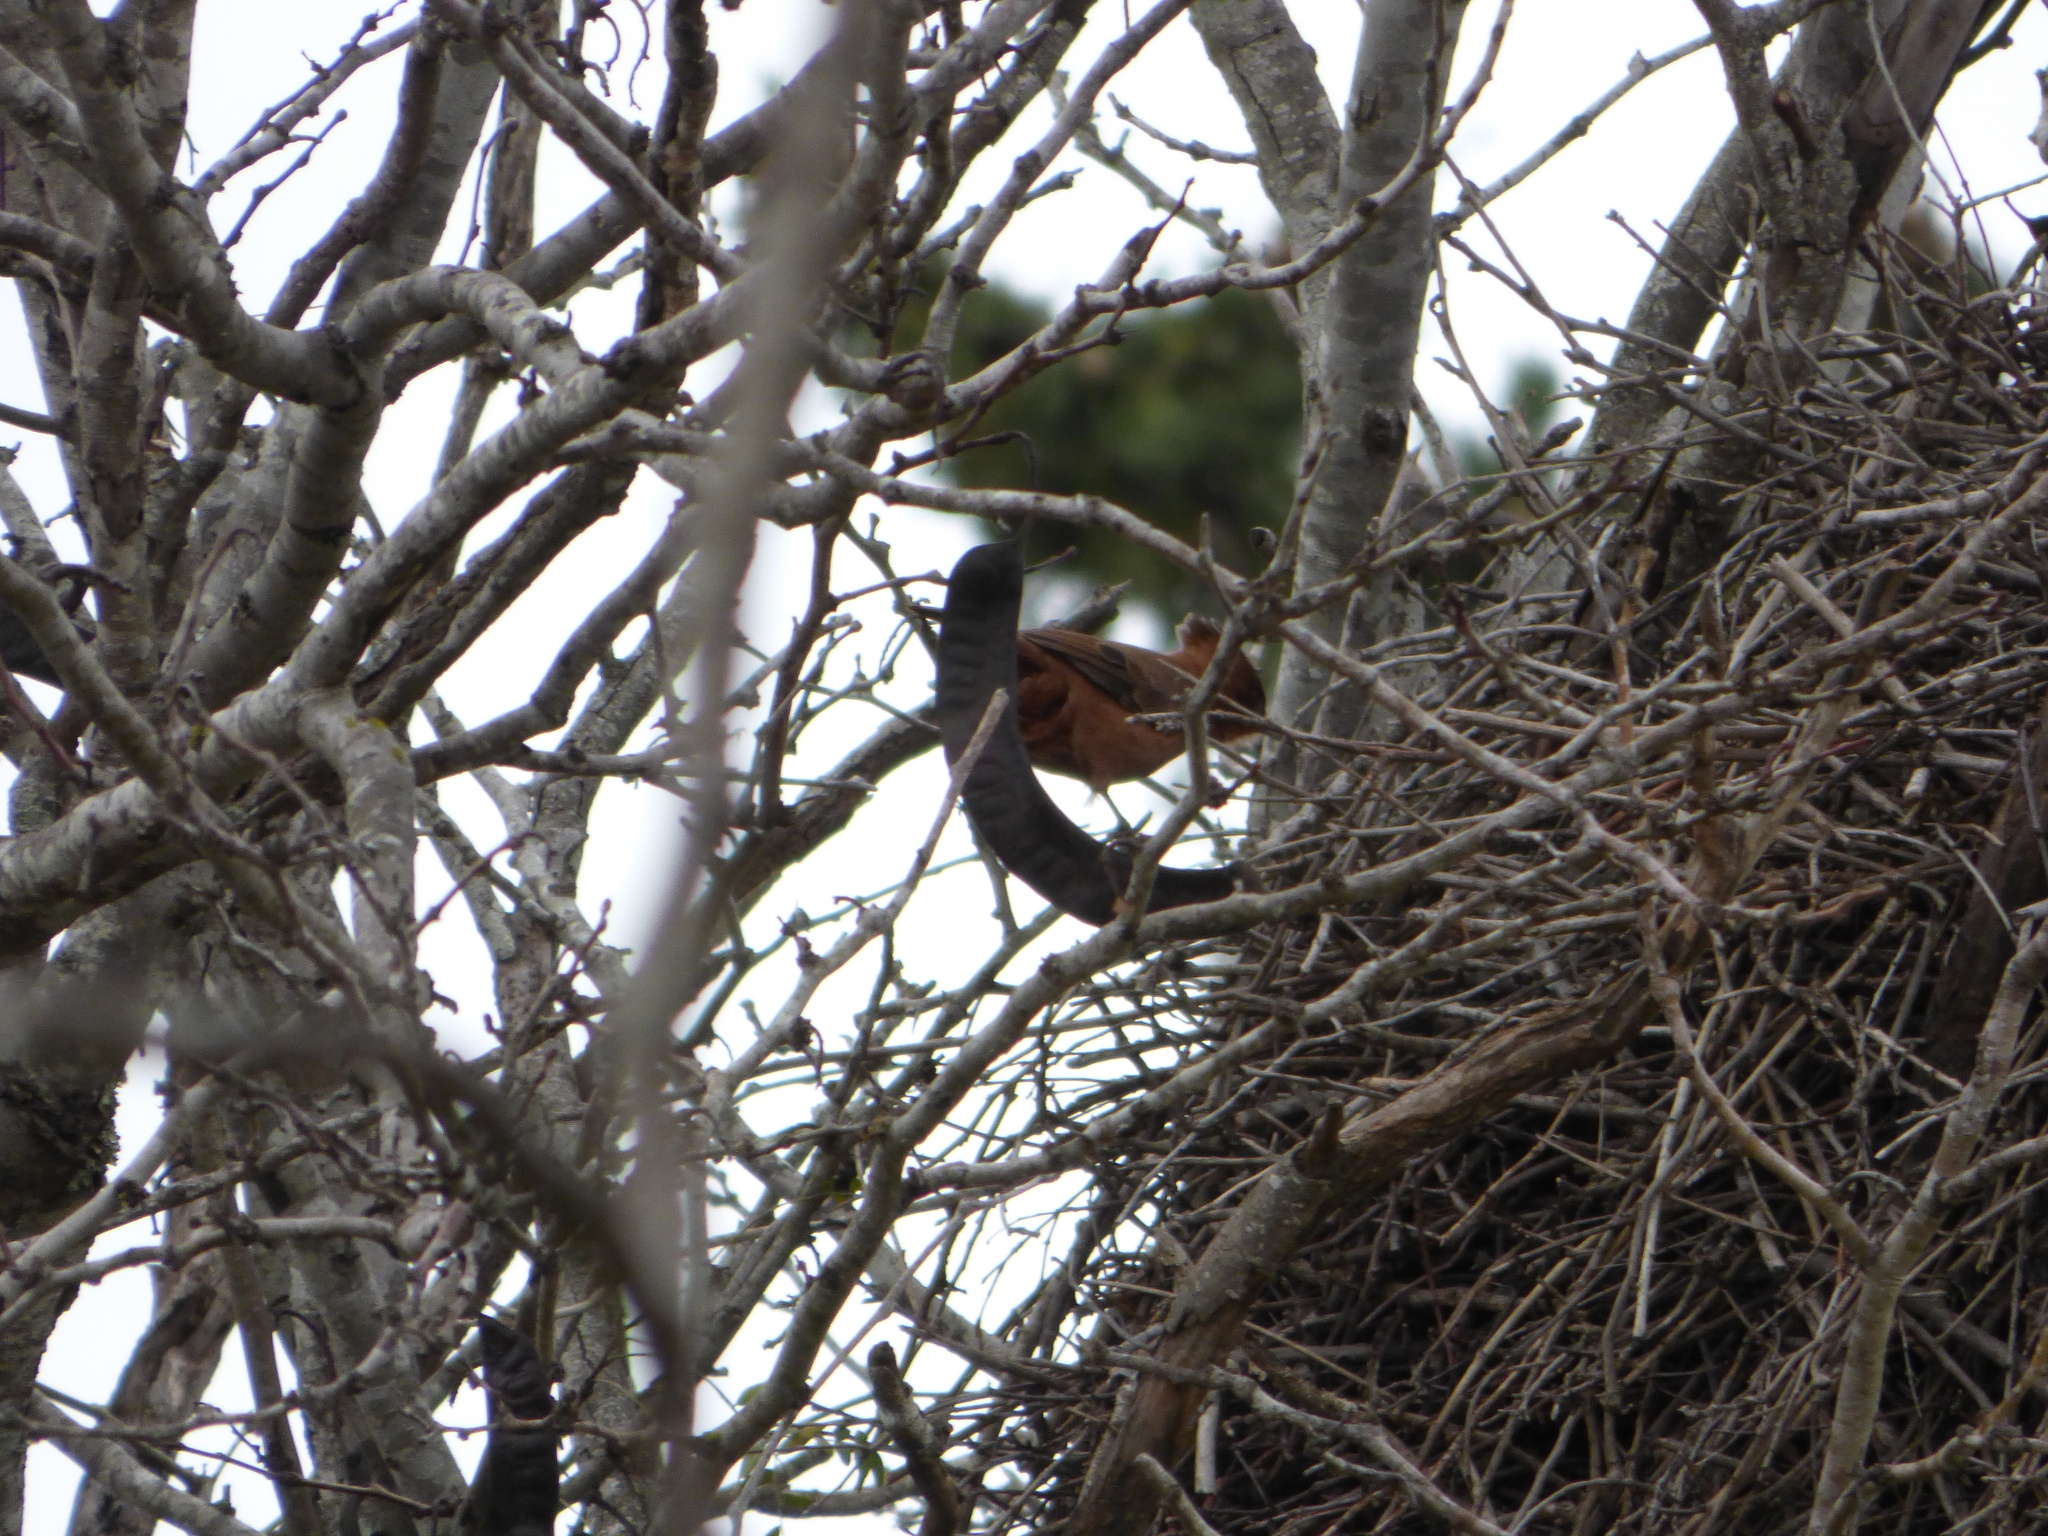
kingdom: Animalia
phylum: Chordata
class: Aves
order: Passeriformes
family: Furnariidae
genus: Pseudoseisura
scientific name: Pseudoseisura lophotes
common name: Brown cacholote
